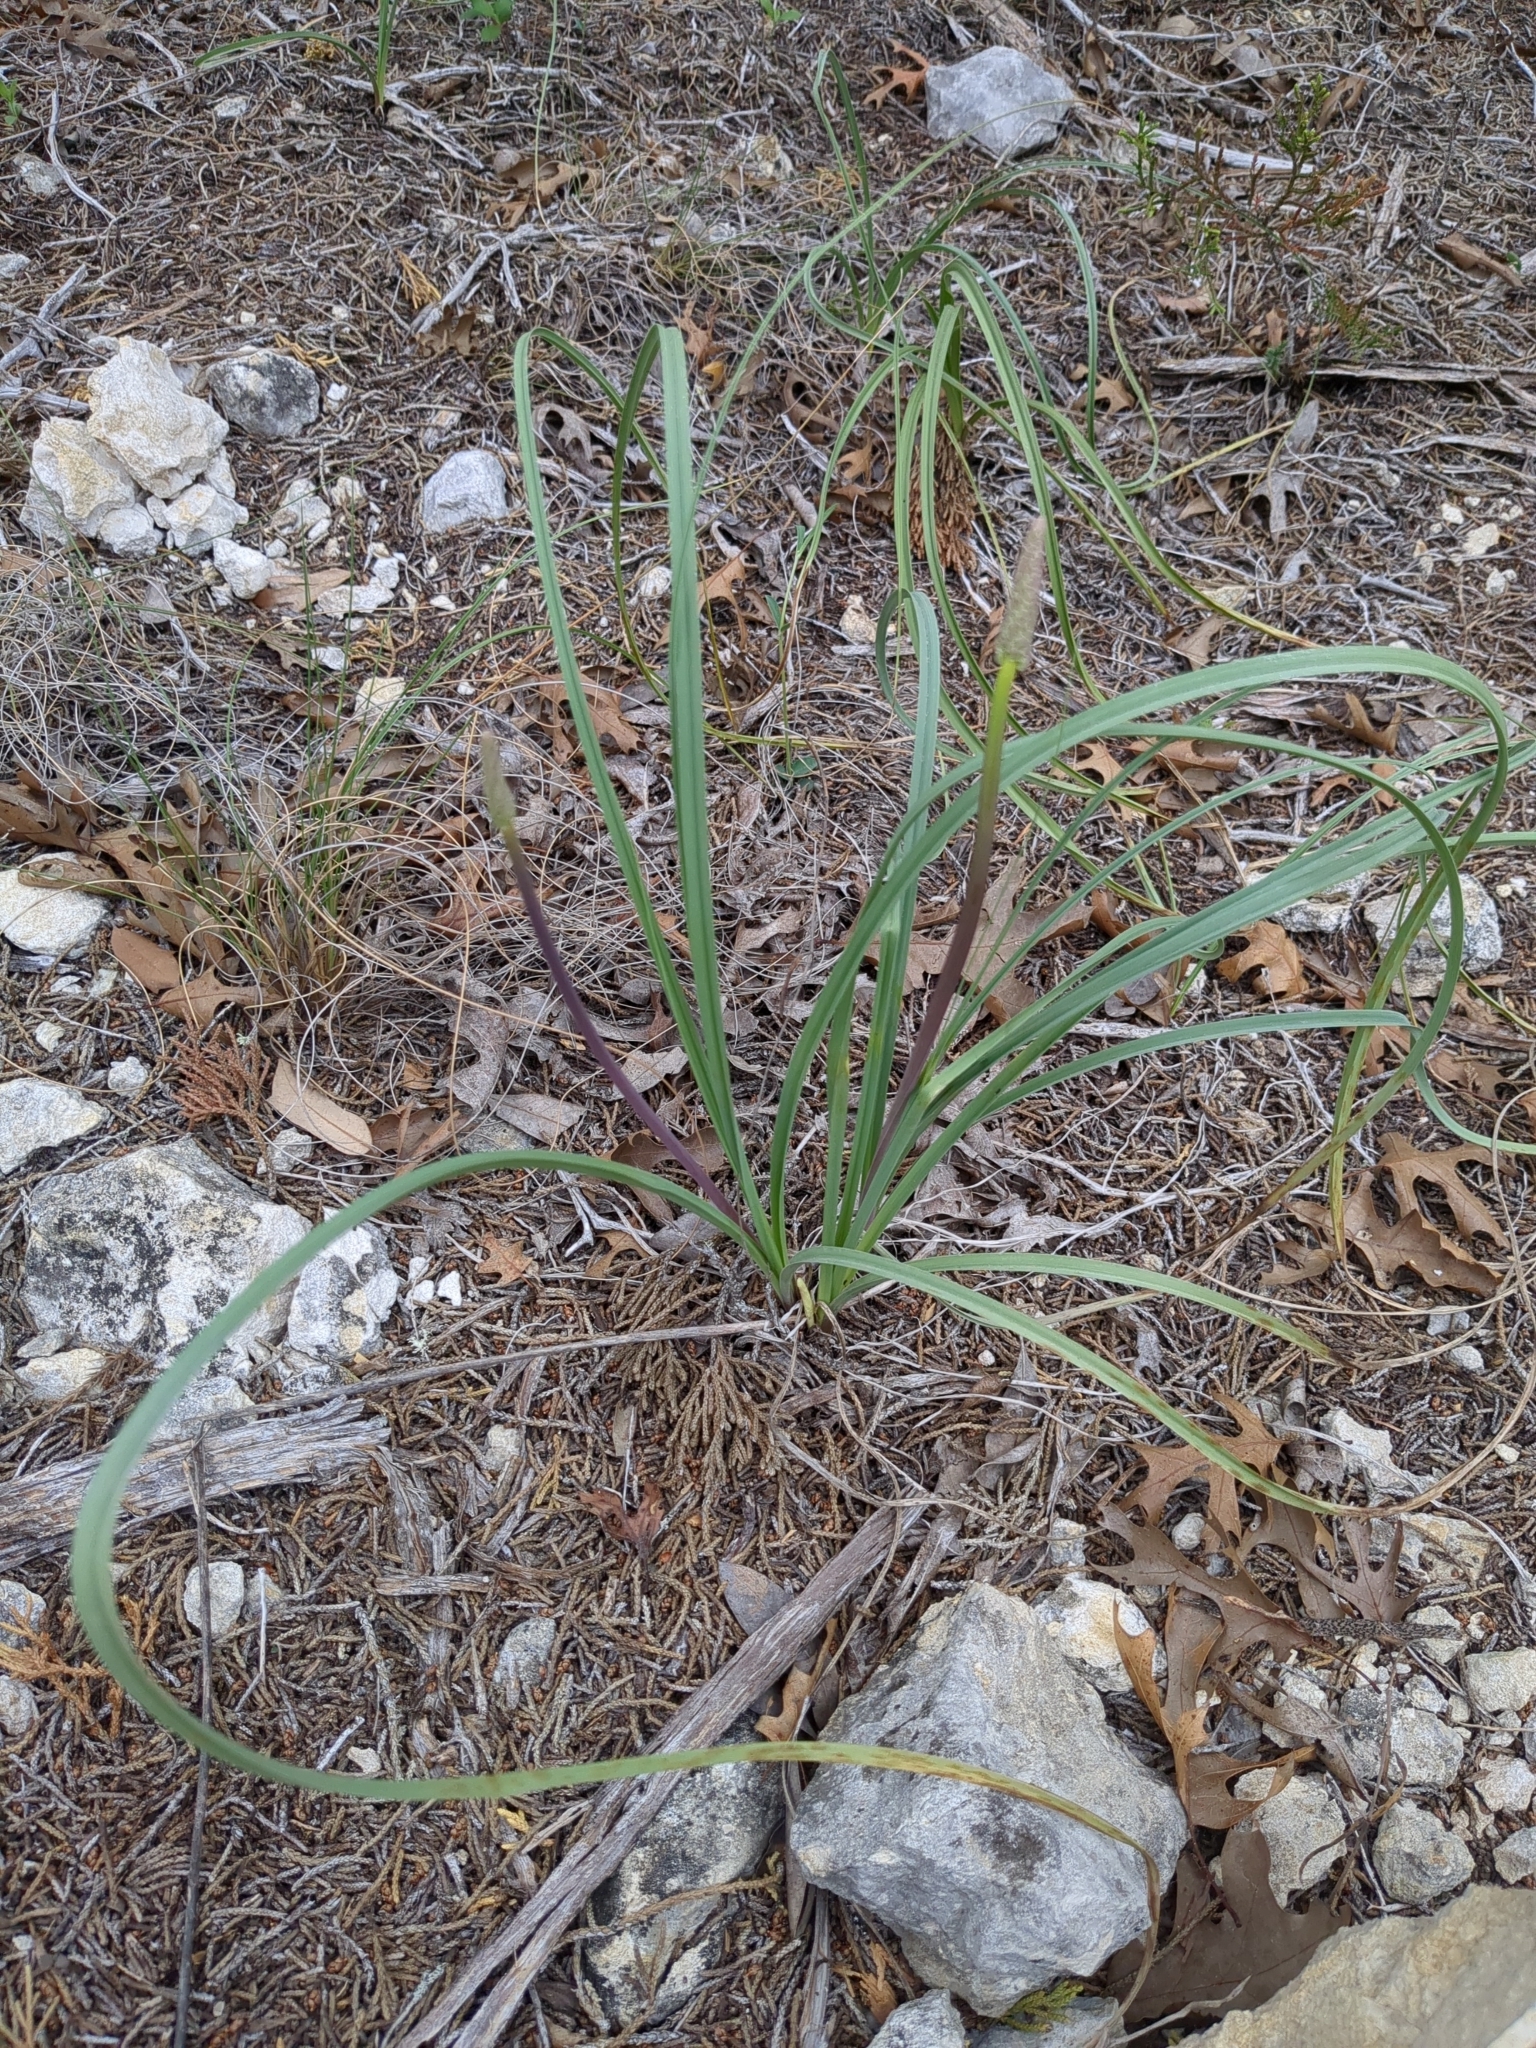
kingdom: Plantae
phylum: Tracheophyta
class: Liliopsida
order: Liliales
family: Melanthiaceae
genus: Schoenocaulon
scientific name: Schoenocaulon texanum
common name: Texas feather-shank
